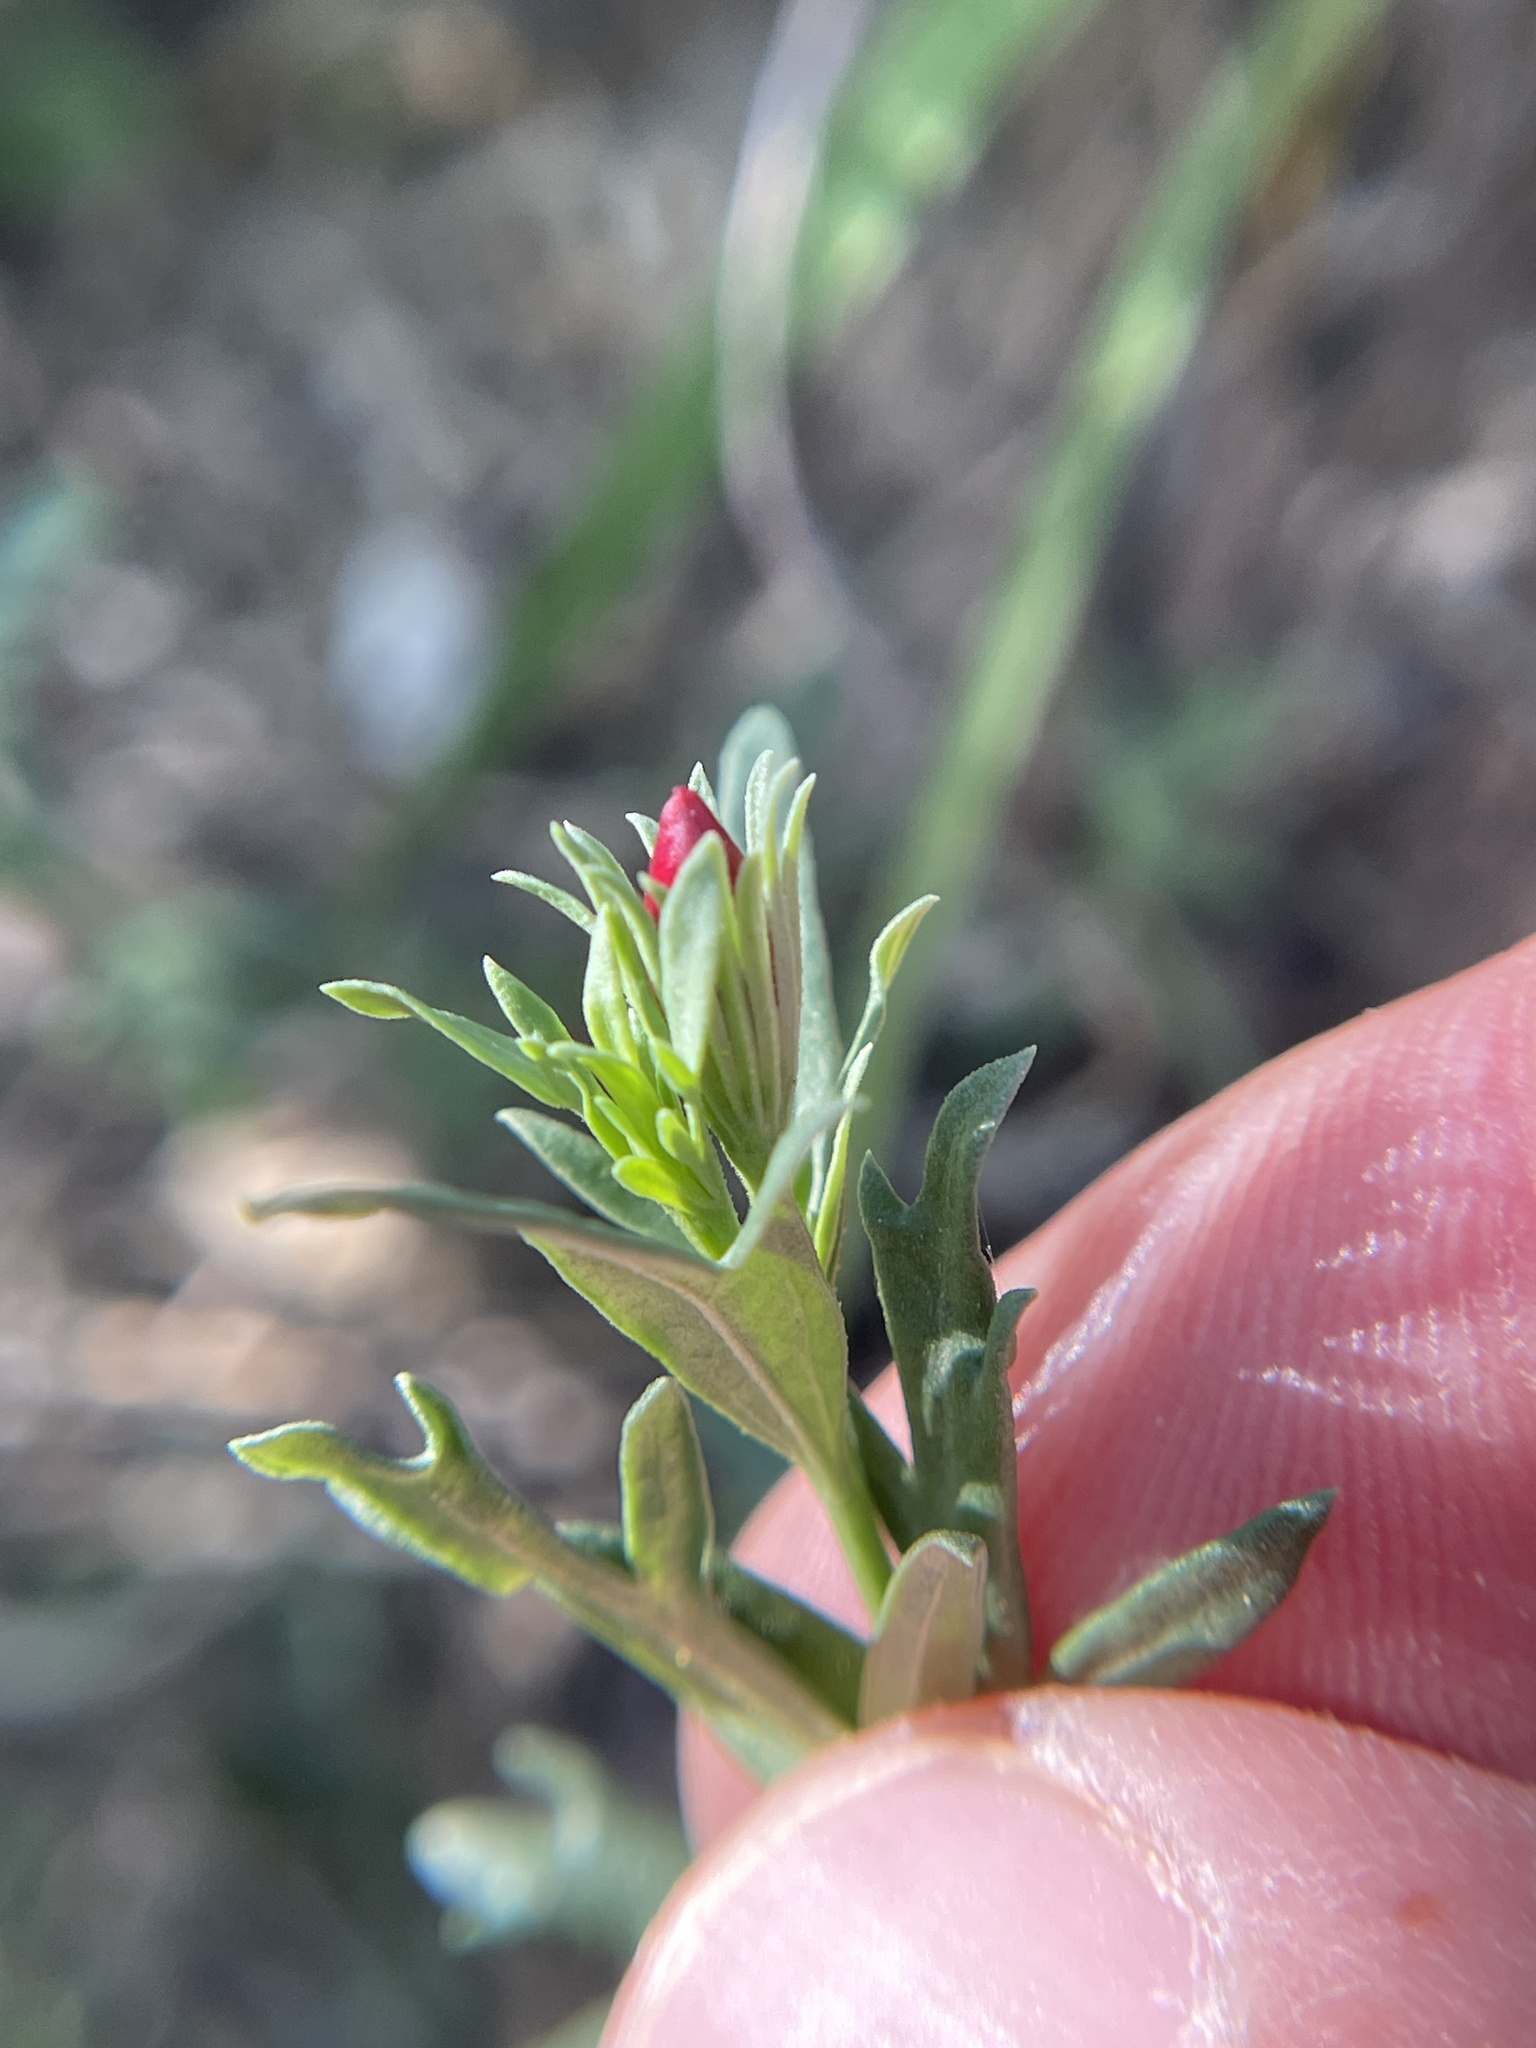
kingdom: Plantae
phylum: Tracheophyta
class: Magnoliopsida
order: Lamiales
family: Oleaceae
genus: Menodora
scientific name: Menodora heterophylla
